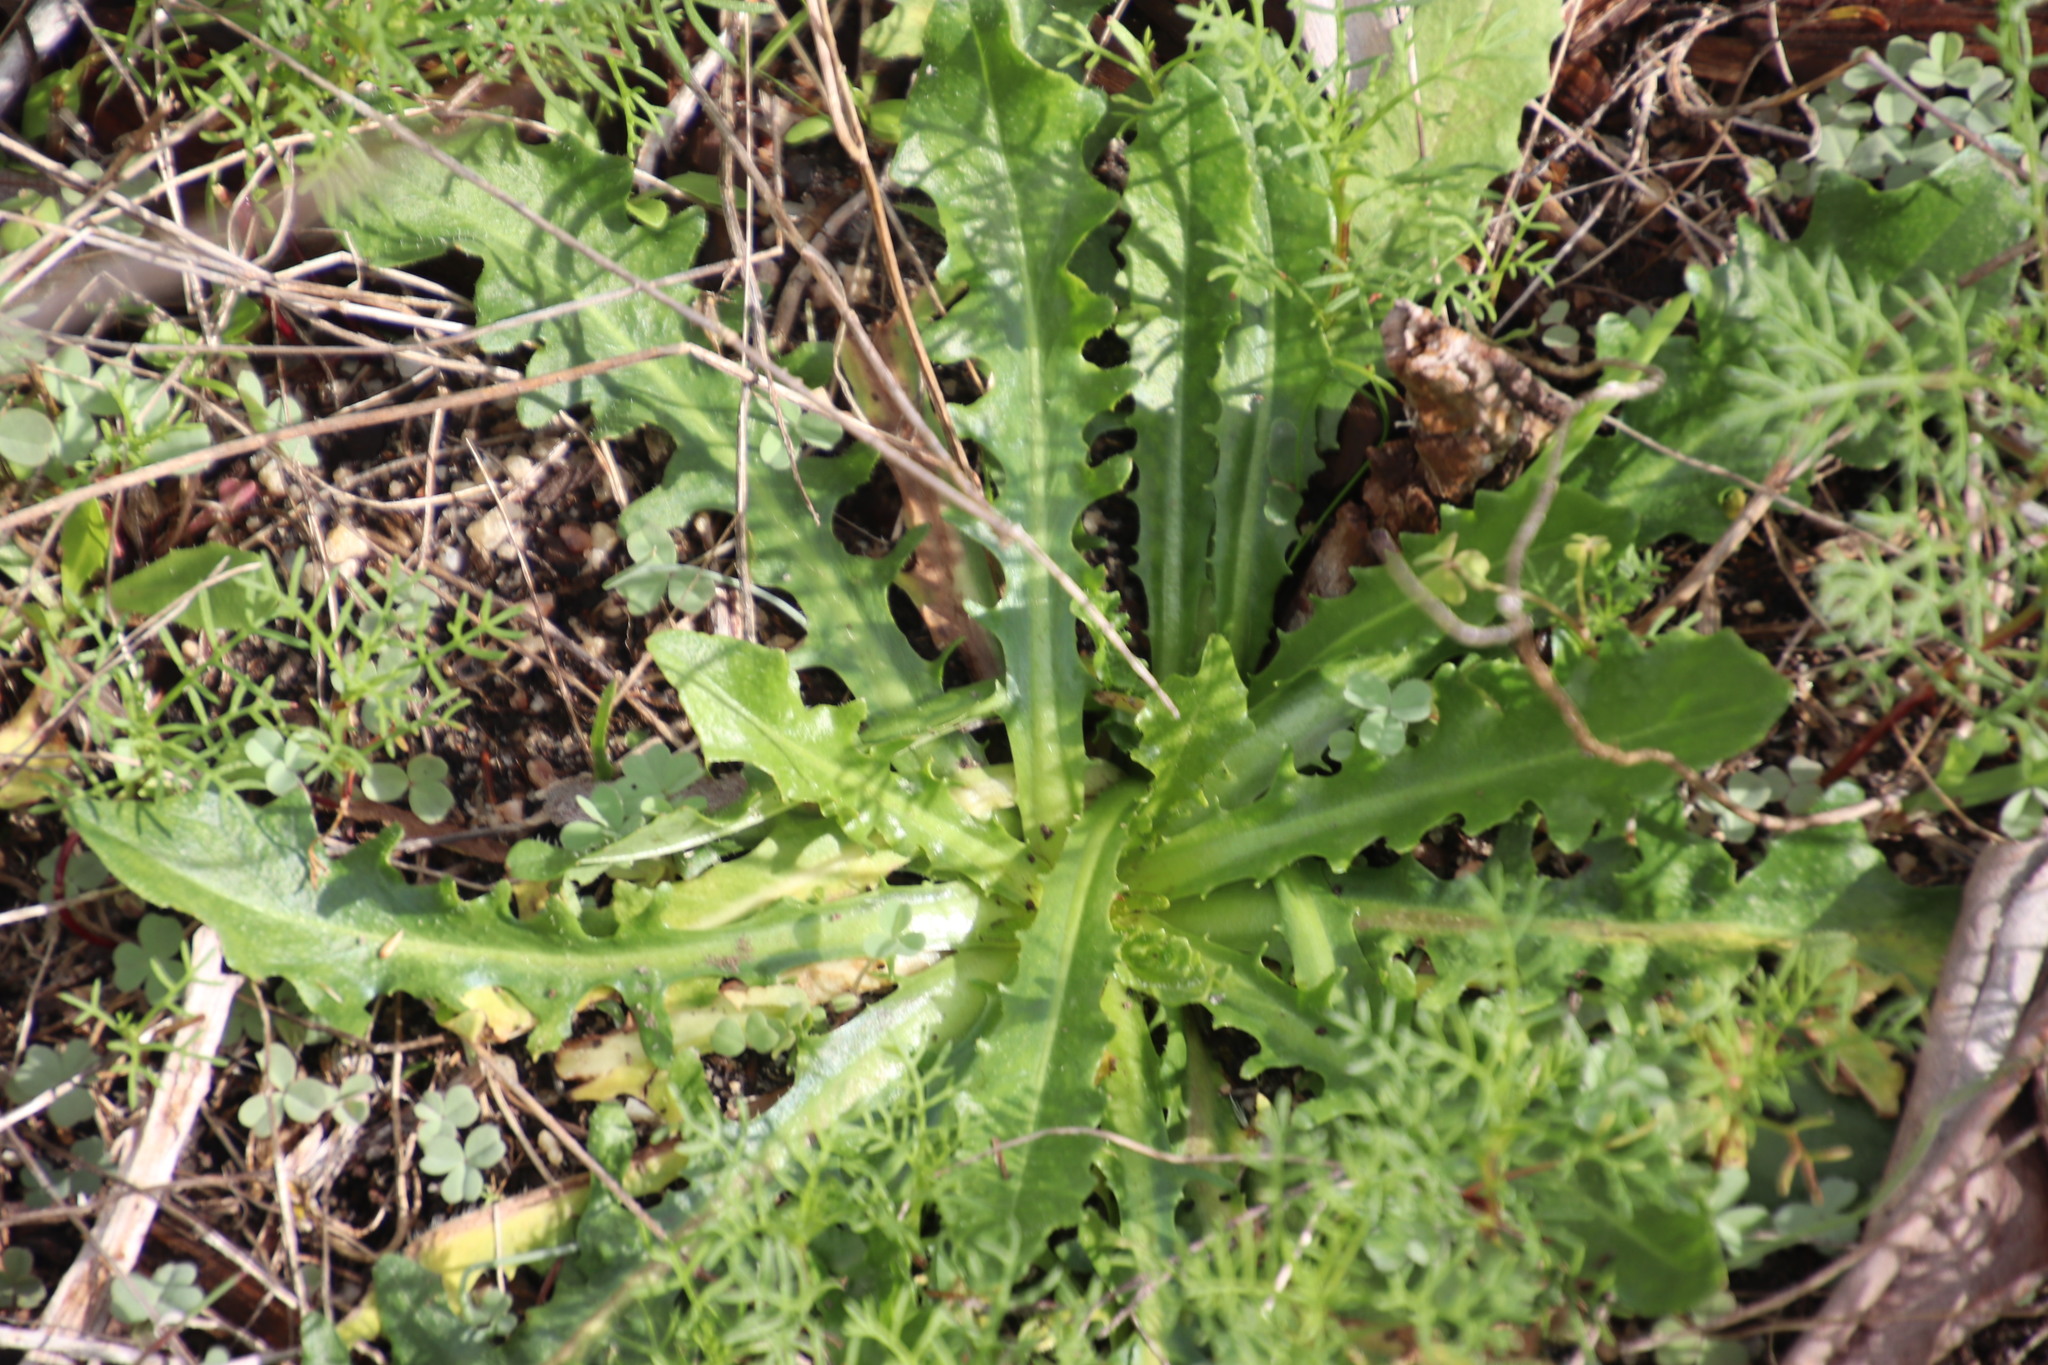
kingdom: Plantae
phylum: Tracheophyta
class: Magnoliopsida
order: Asterales
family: Asteraceae
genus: Hypochaeris
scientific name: Hypochaeris radicata
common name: Flatweed
